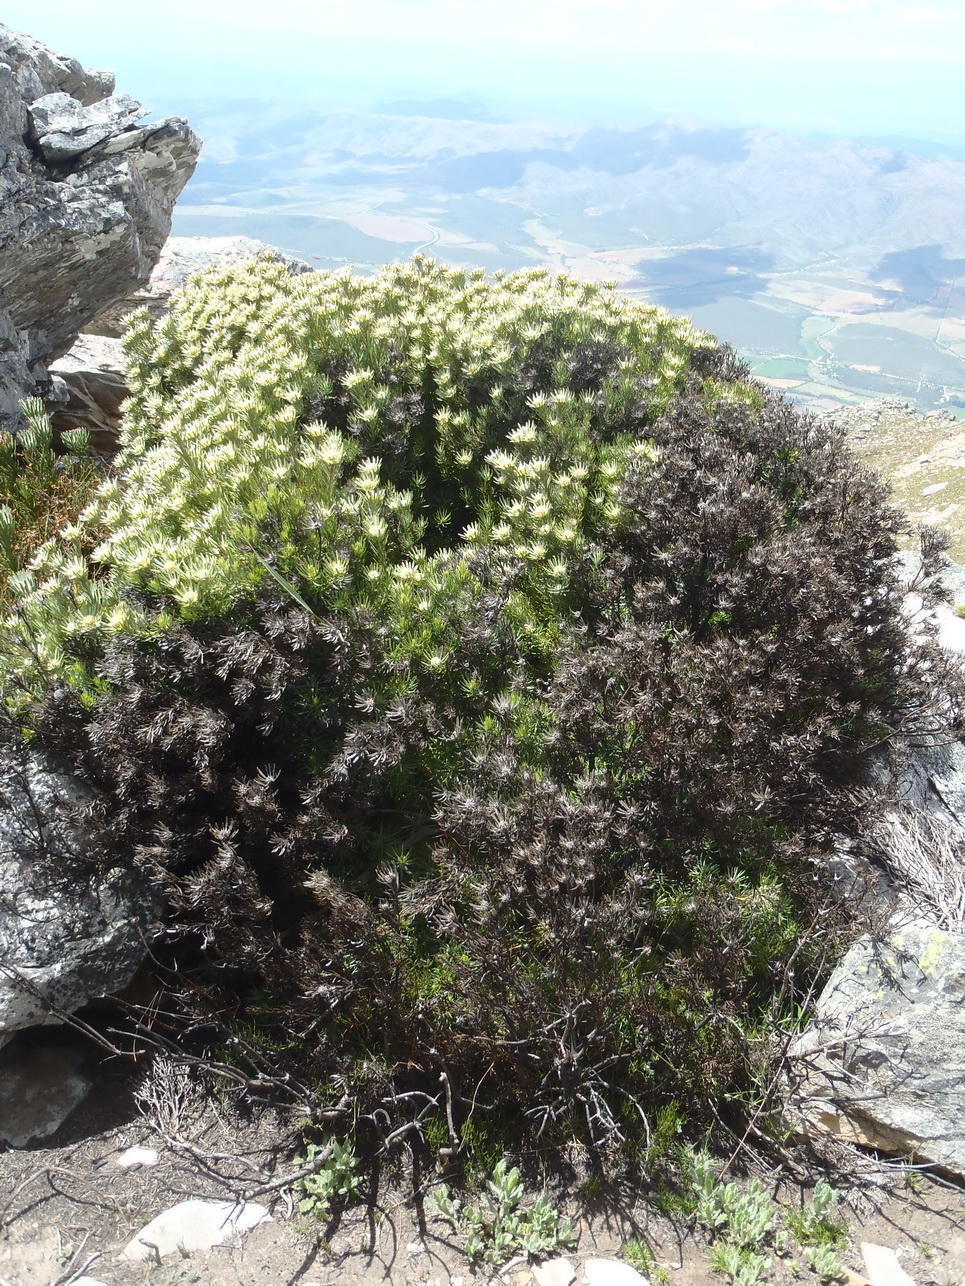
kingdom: Plantae
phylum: Tracheophyta
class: Magnoliopsida
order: Proteales
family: Proteaceae
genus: Leucadendron
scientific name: Leucadendron dregei
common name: Summit conebush
